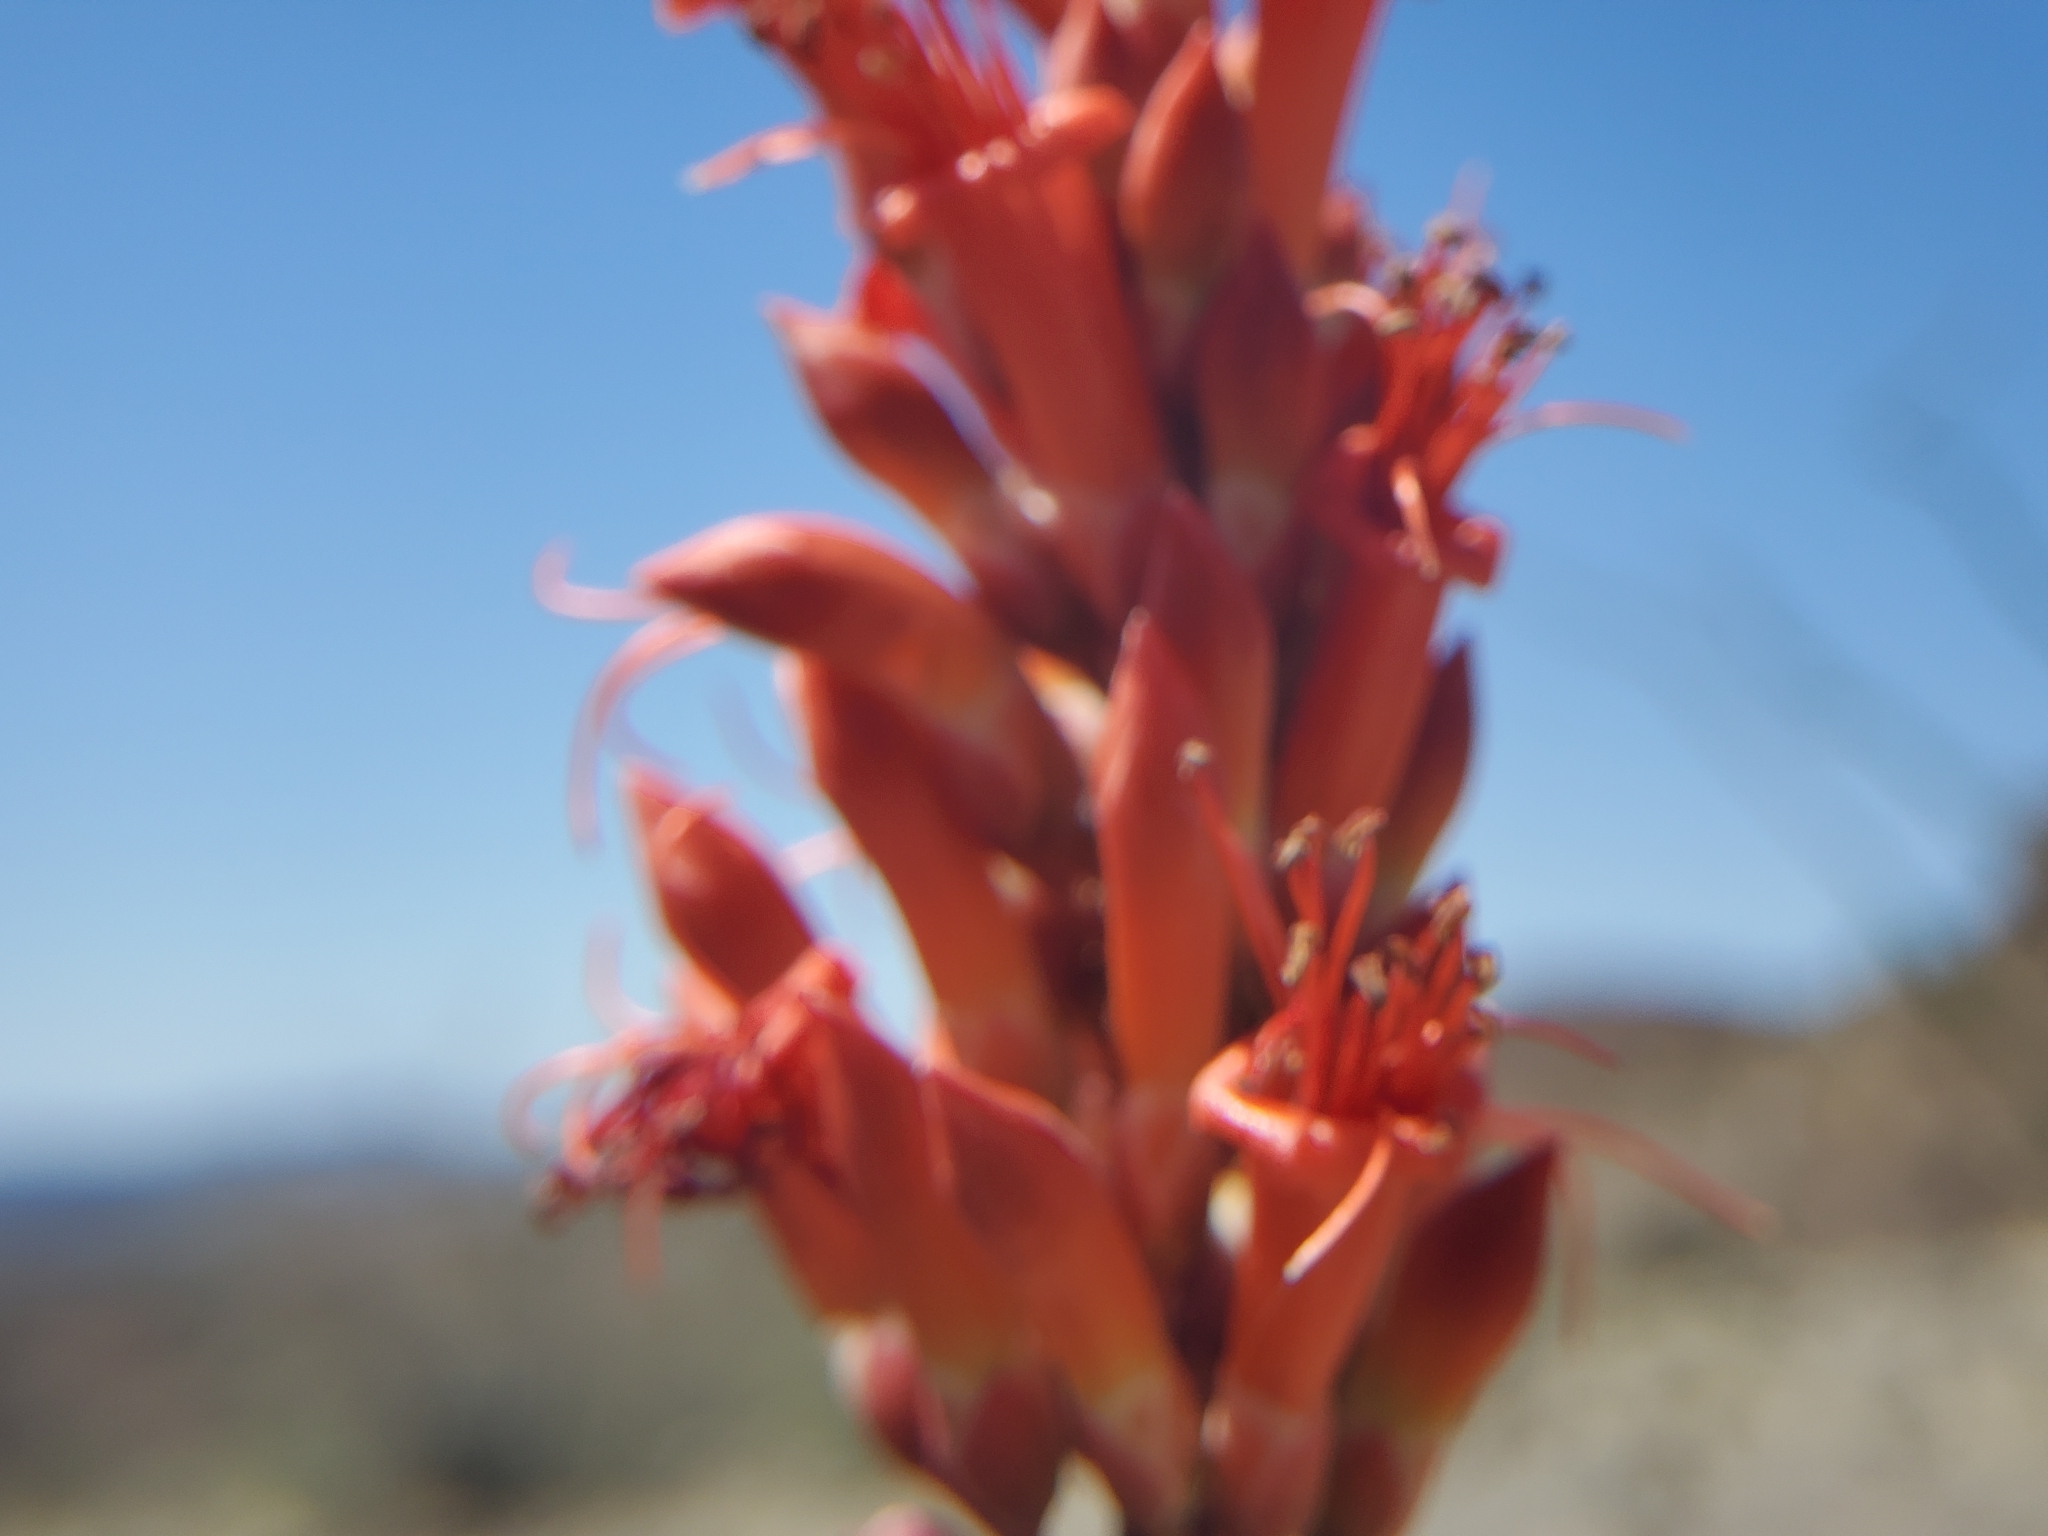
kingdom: Plantae
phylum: Tracheophyta
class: Magnoliopsida
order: Ericales
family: Fouquieriaceae
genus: Fouquieria
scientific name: Fouquieria splendens
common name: Vine-cactus
